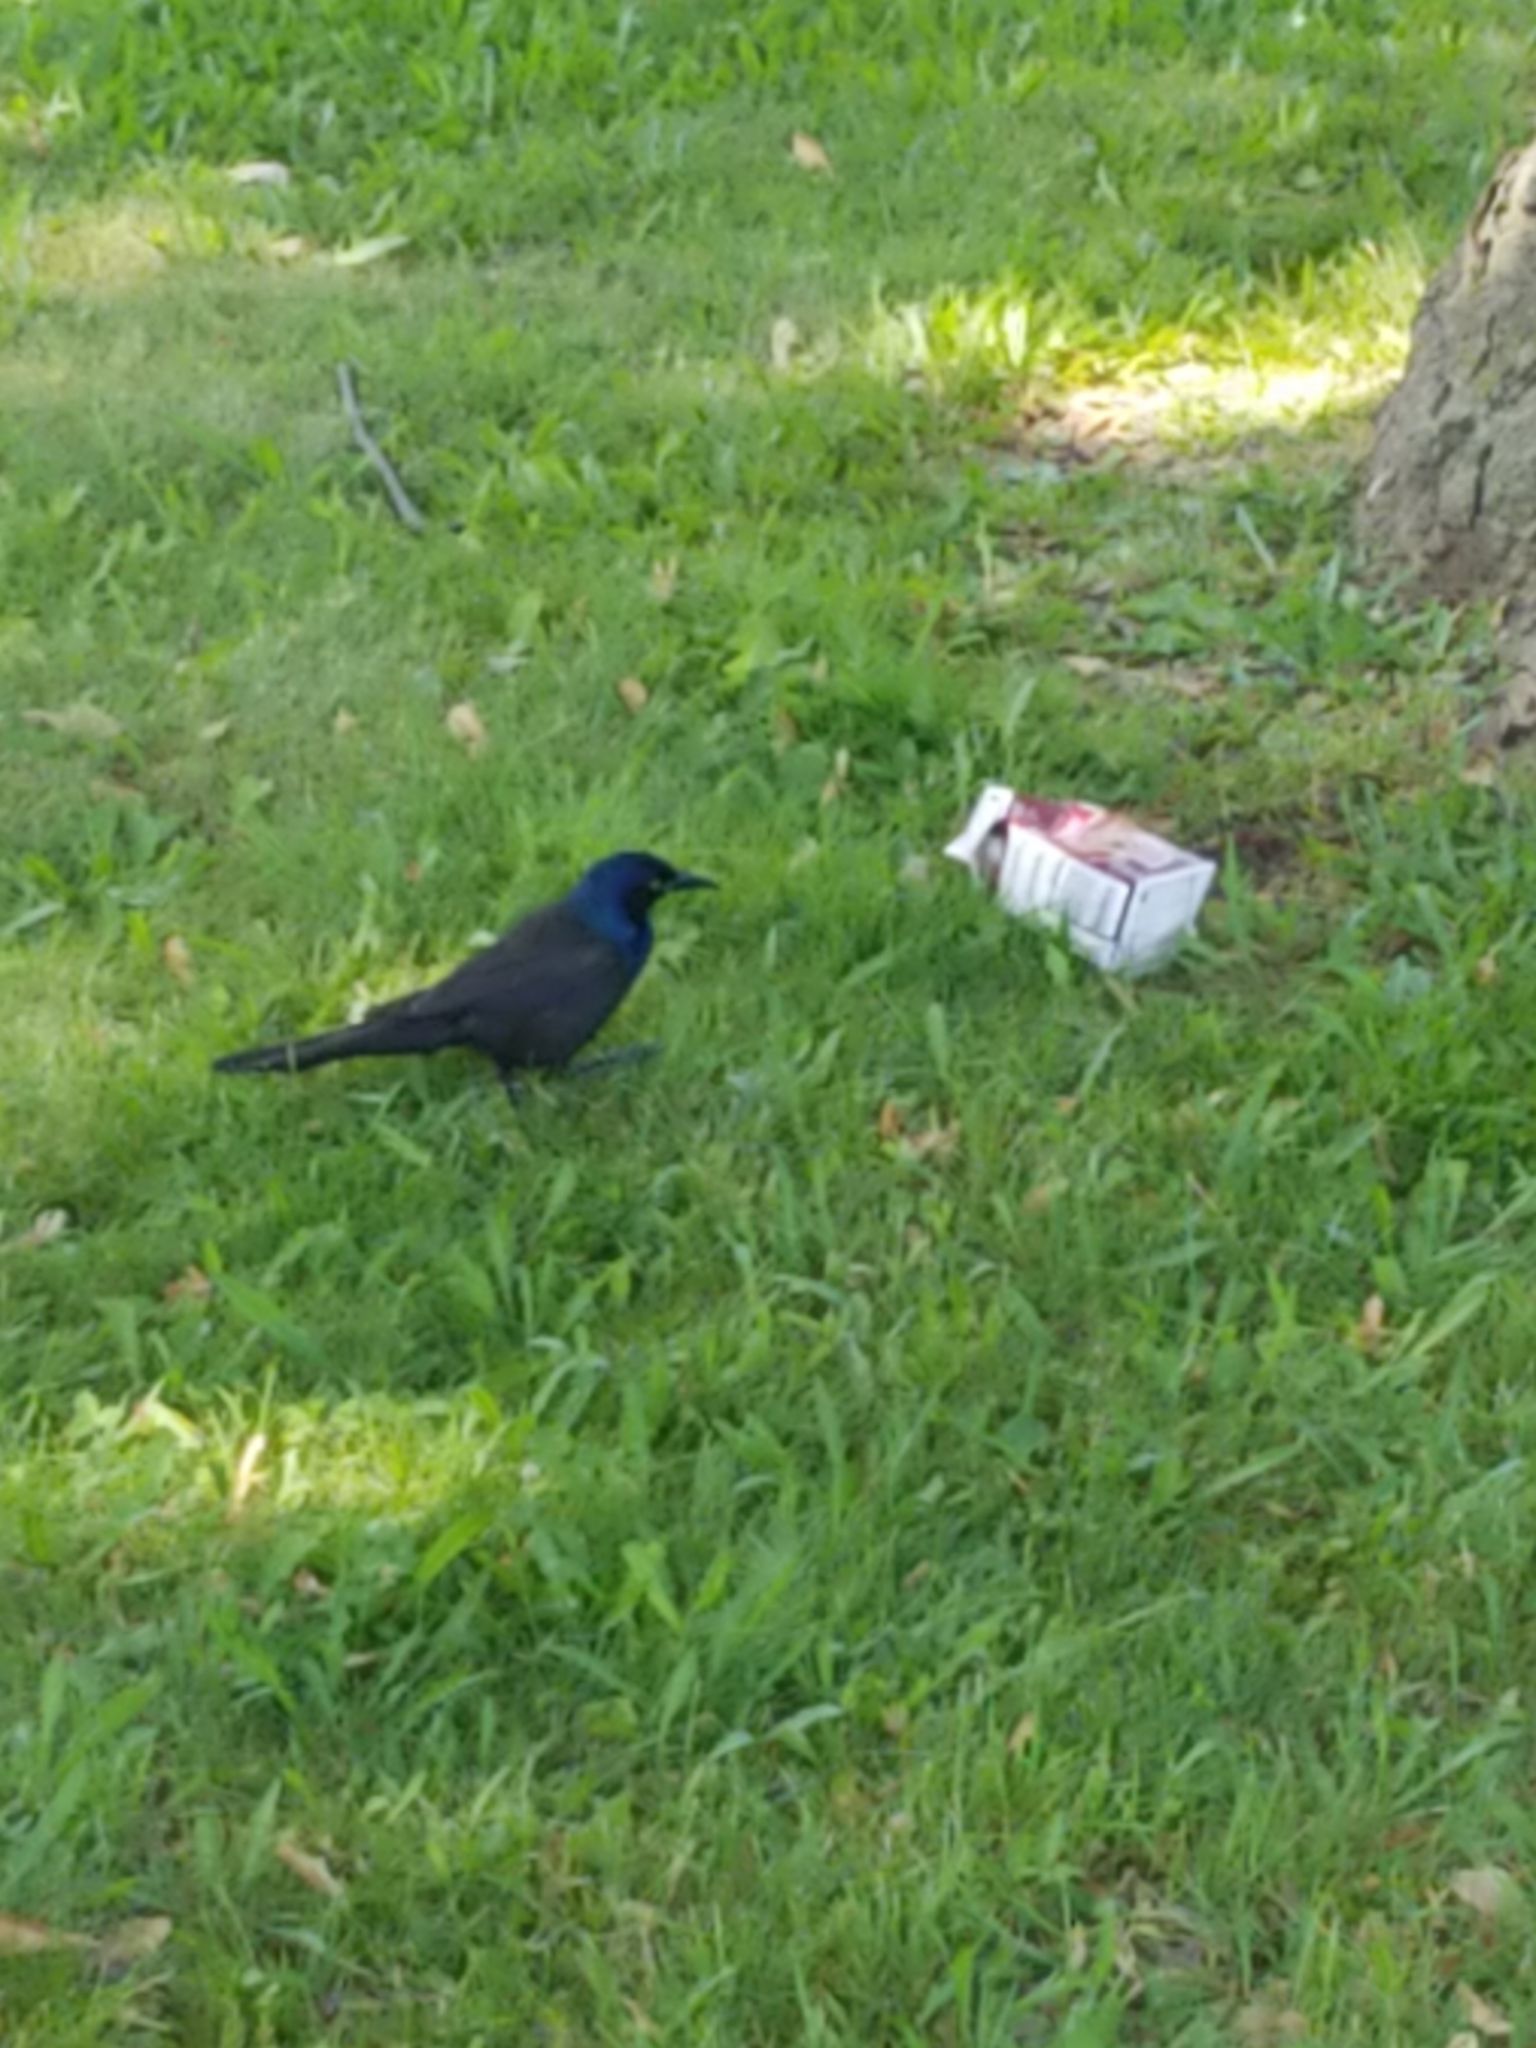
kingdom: Animalia
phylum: Chordata
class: Aves
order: Passeriformes
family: Icteridae
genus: Quiscalus
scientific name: Quiscalus quiscula
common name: Common grackle
